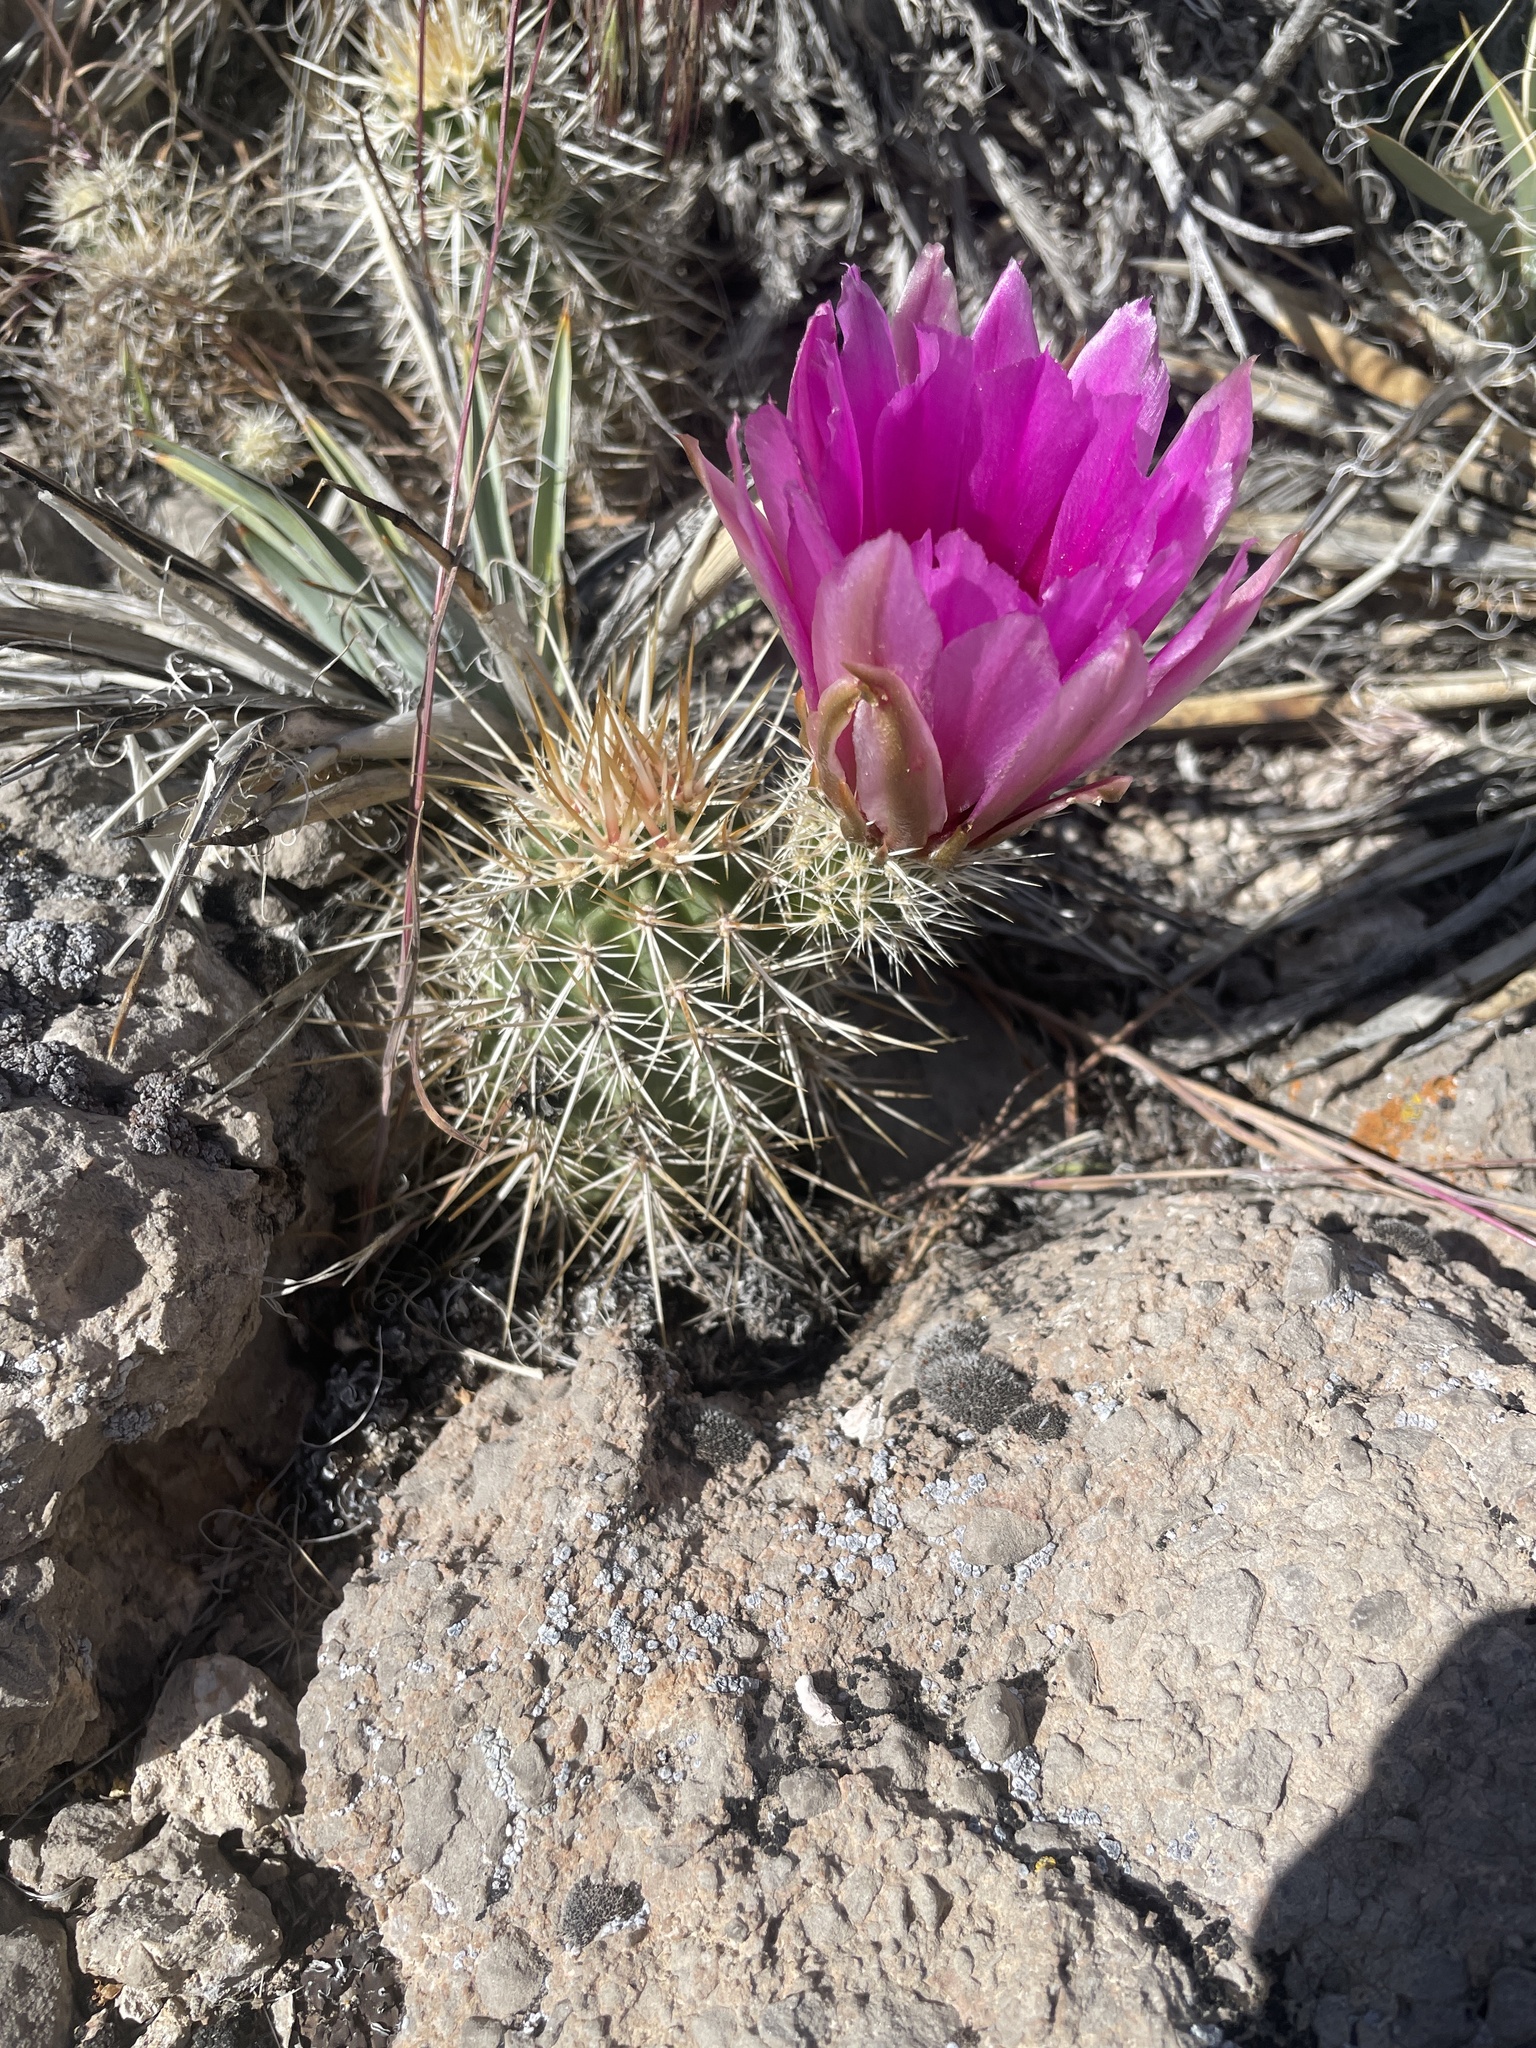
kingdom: Plantae
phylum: Tracheophyta
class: Magnoliopsida
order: Caryophyllales
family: Cactaceae
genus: Echinocereus
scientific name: Echinocereus engelmannii
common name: Engelmann's hedgehog cactus
